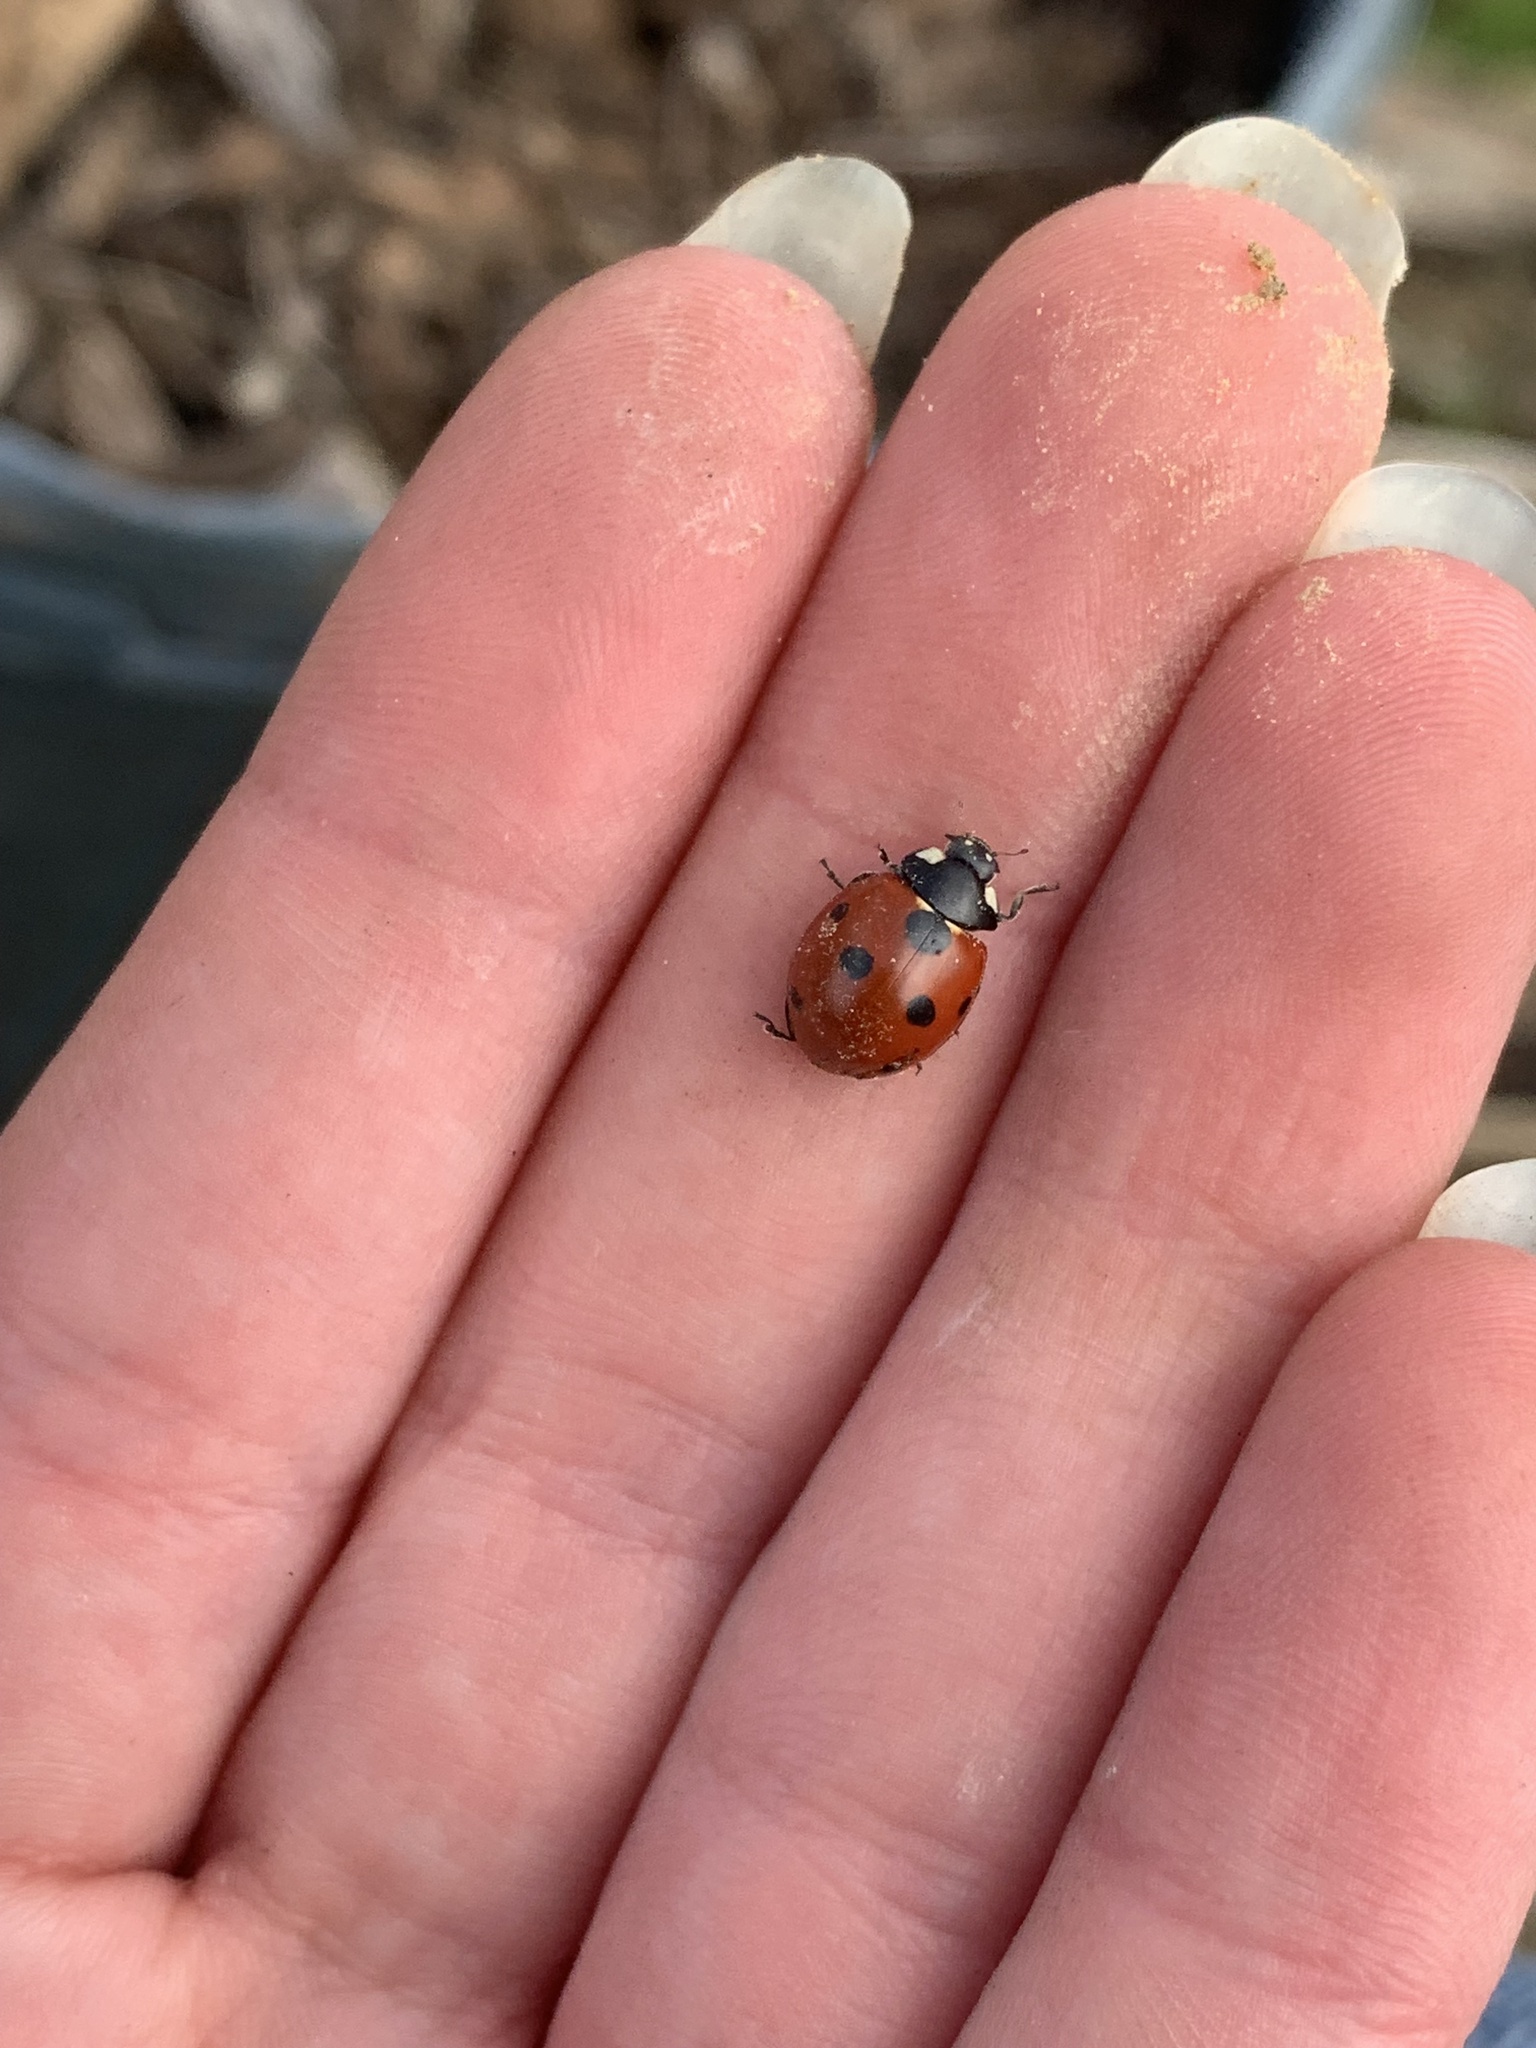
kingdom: Animalia
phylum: Arthropoda
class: Insecta
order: Coleoptera
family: Coccinellidae
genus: Coccinella
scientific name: Coccinella septempunctata
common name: Sevenspotted lady beetle
